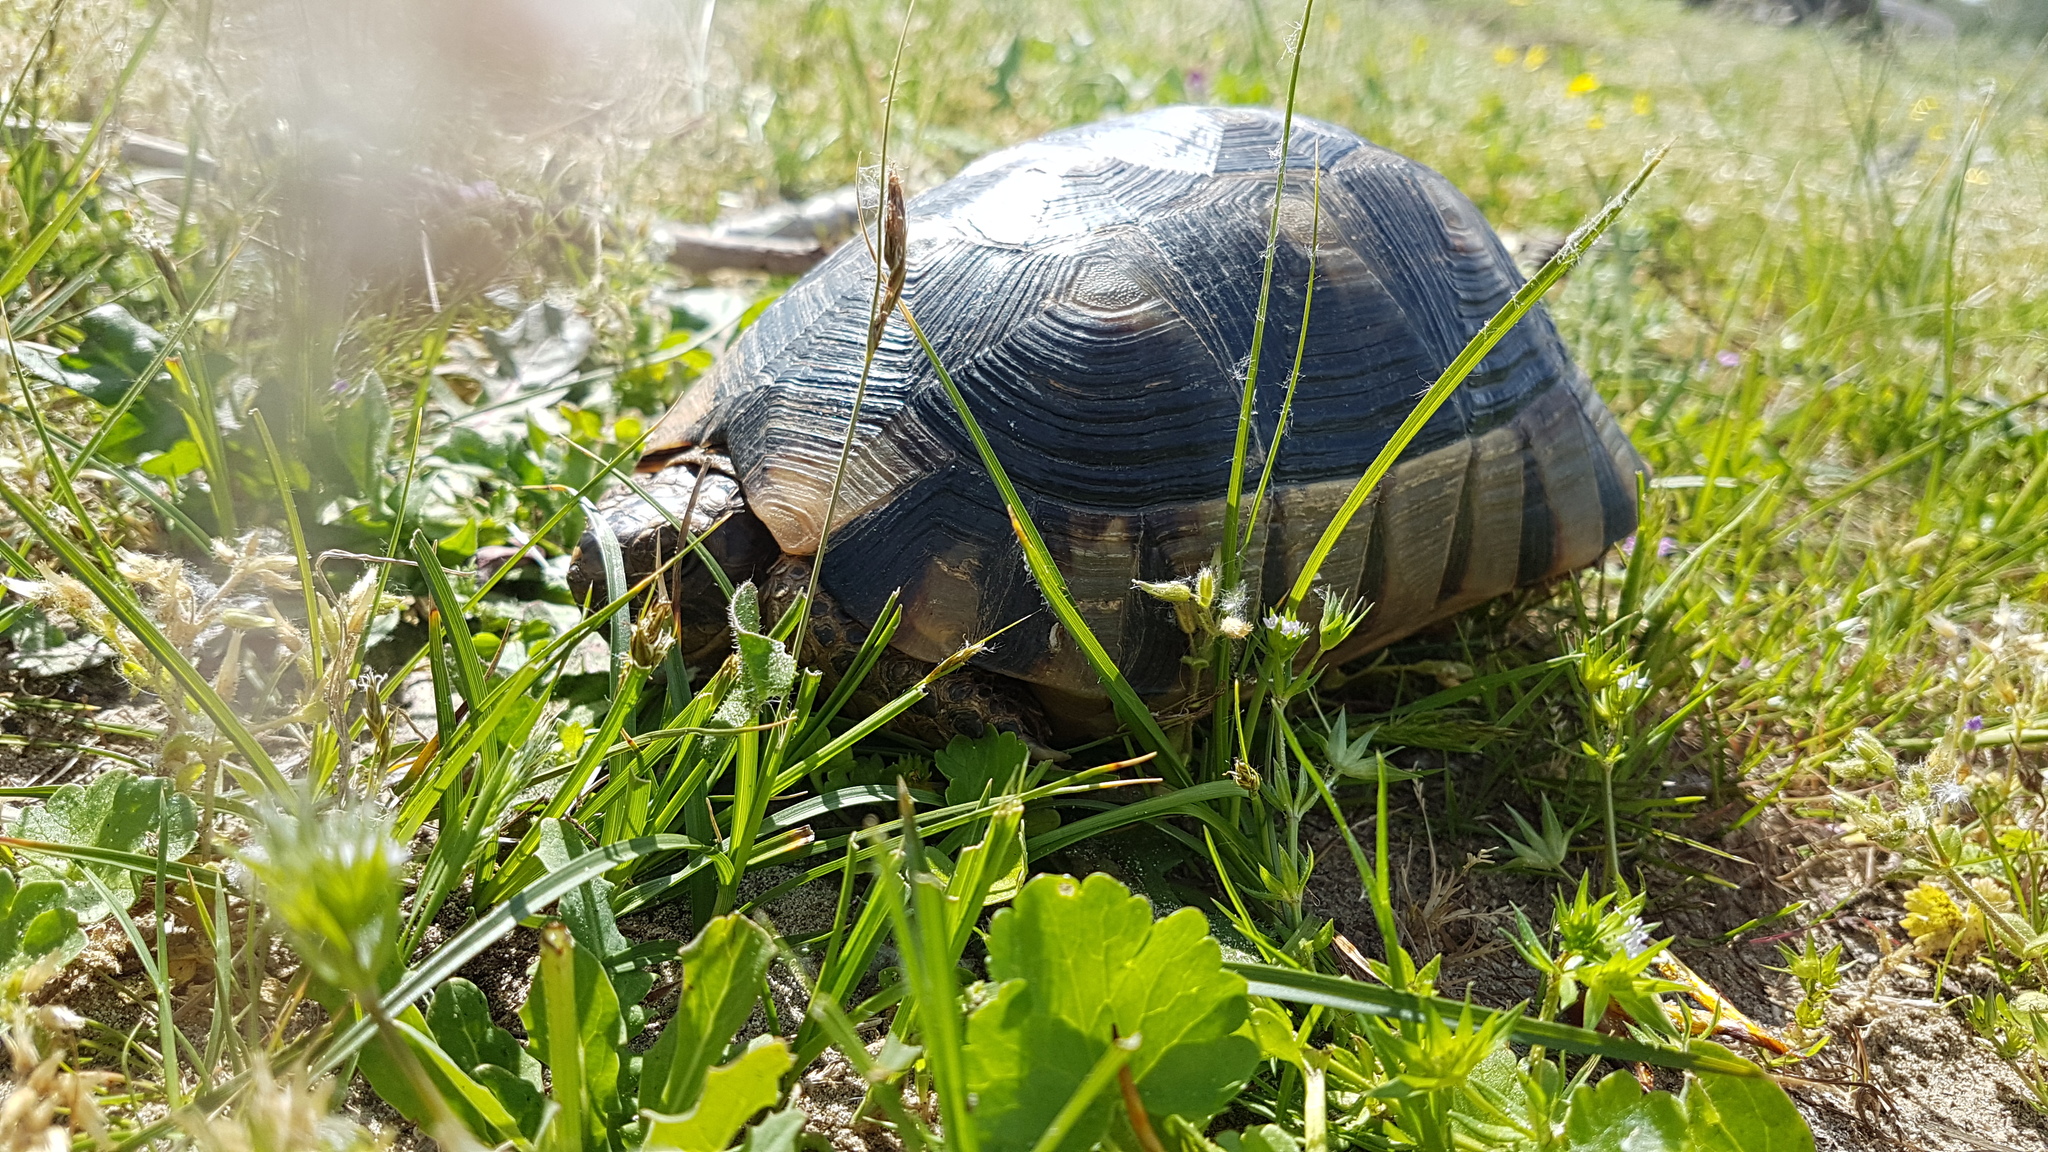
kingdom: Animalia
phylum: Chordata
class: Testudines
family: Testudinidae
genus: Testudo
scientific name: Testudo marginata
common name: Marginated tortoise
